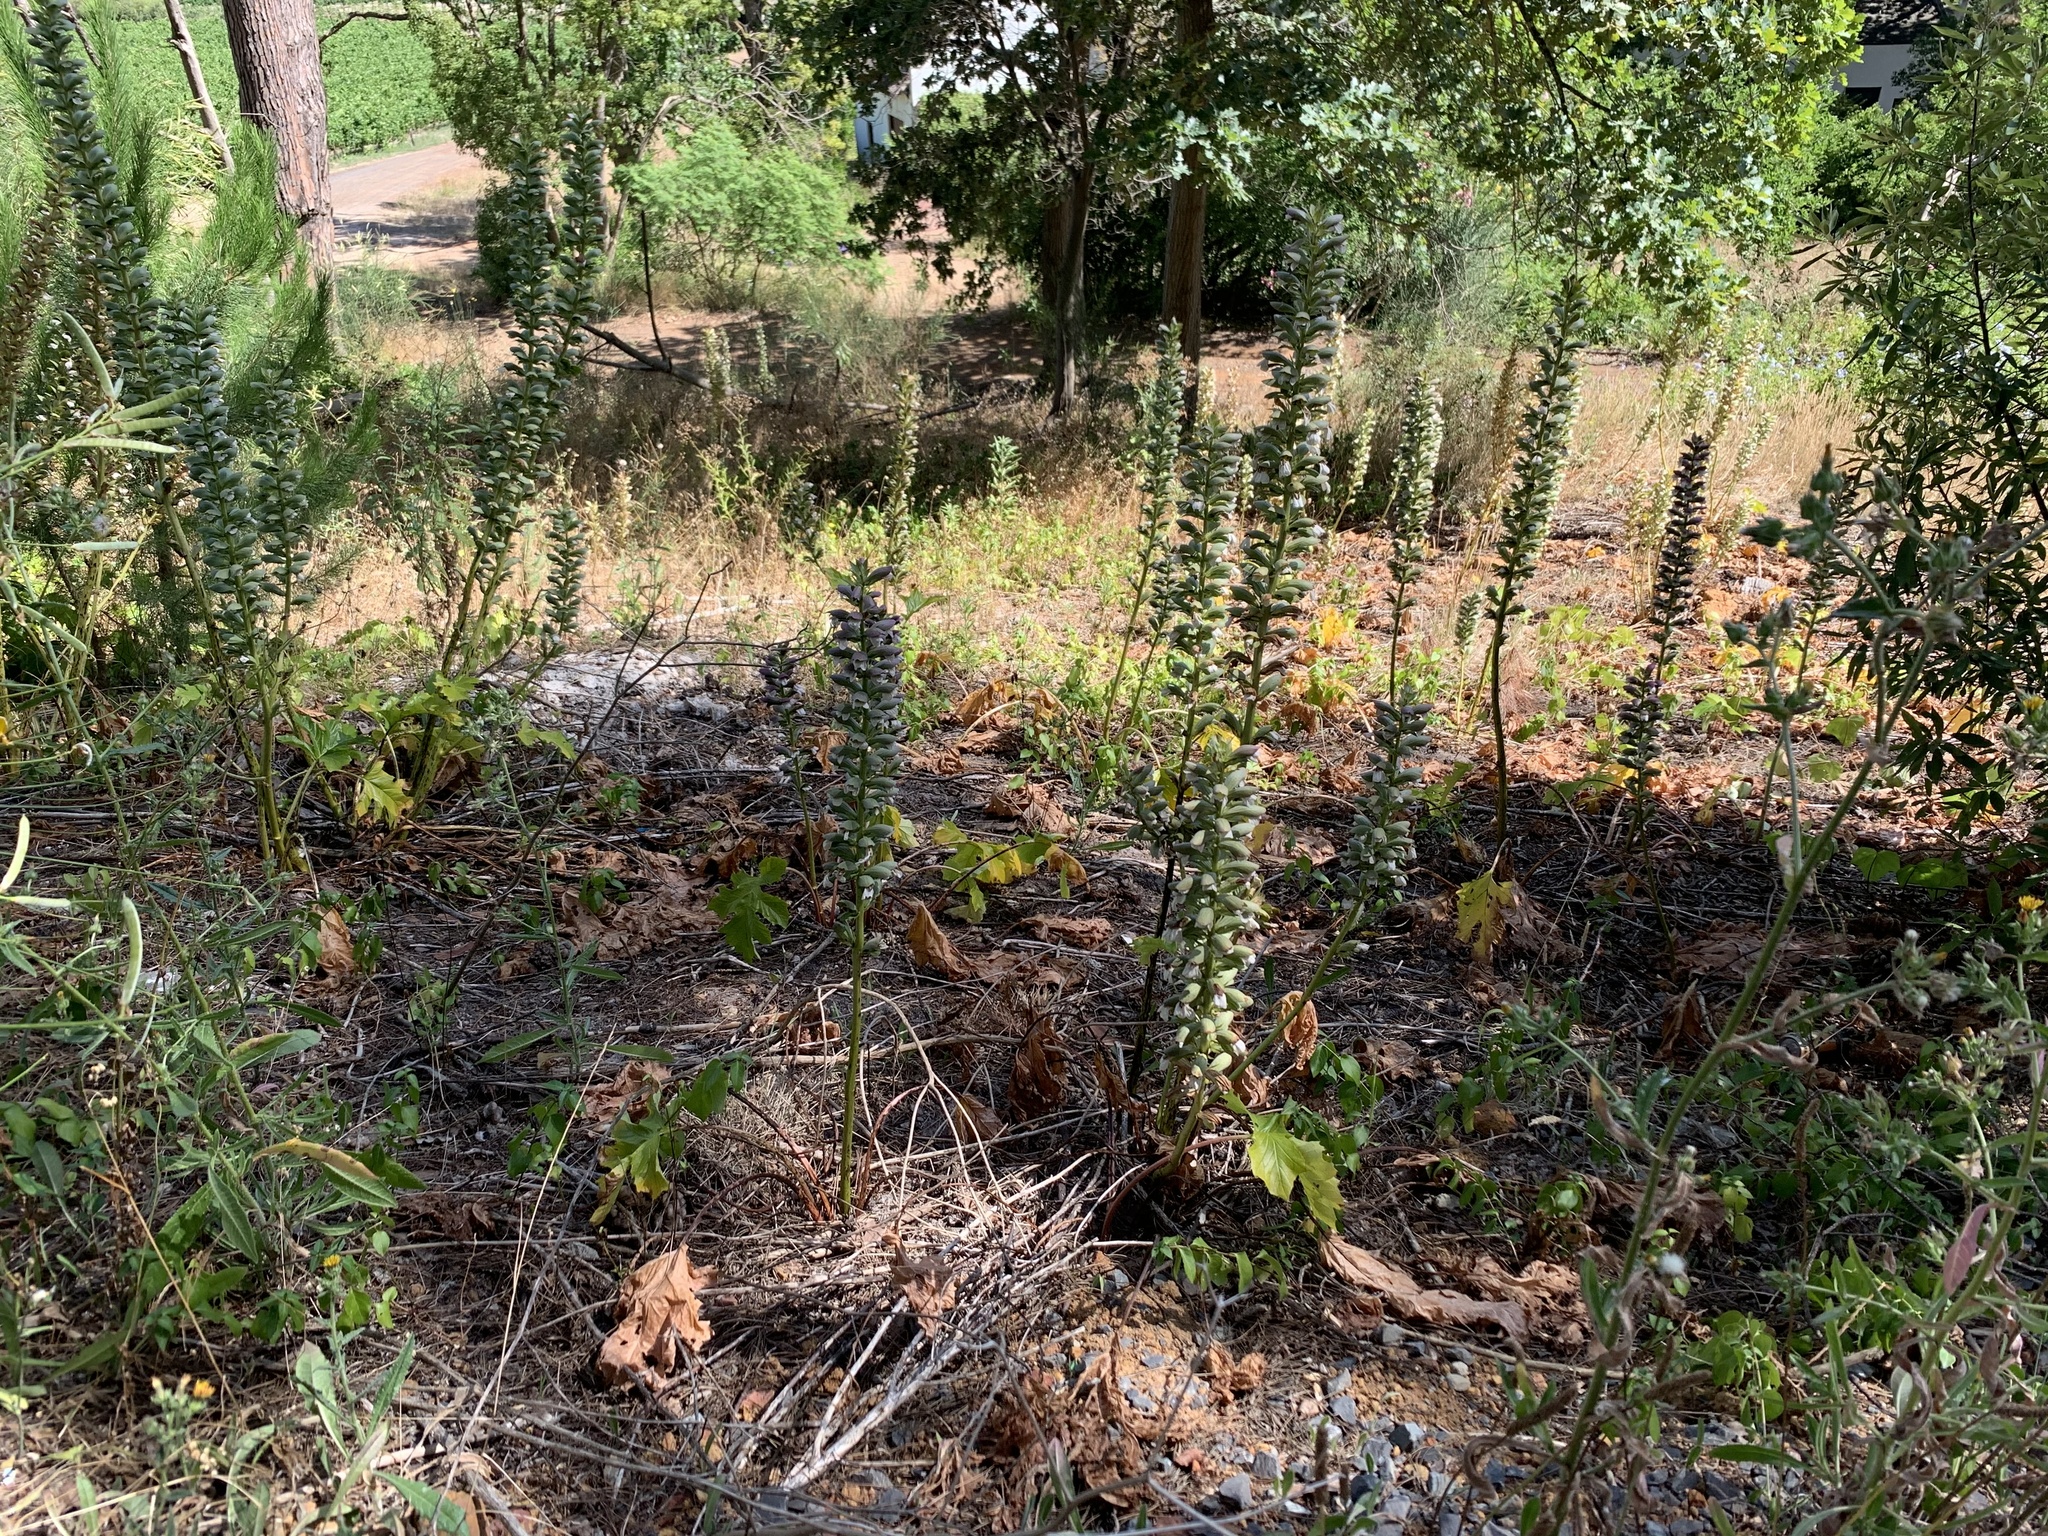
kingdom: Plantae
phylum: Tracheophyta
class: Magnoliopsida
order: Lamiales
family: Acanthaceae
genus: Acanthus
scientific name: Acanthus mollis
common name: Bear's-breech
